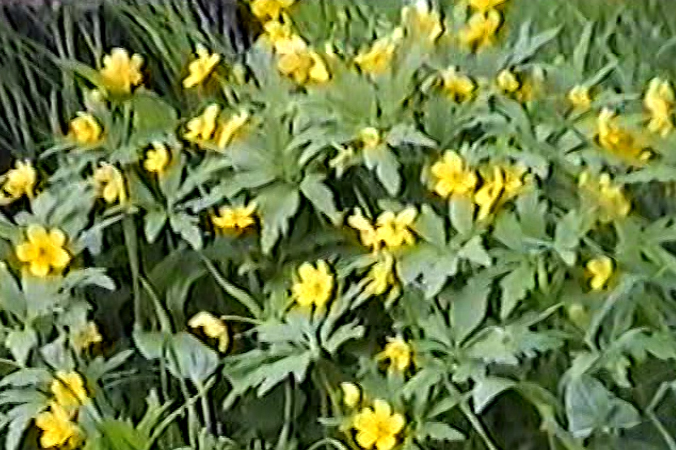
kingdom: Plantae
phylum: Tracheophyta
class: Magnoliopsida
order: Ranunculales
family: Ranunculaceae
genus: Anemone
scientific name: Anemone ranunculoides
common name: Yellow anemone
